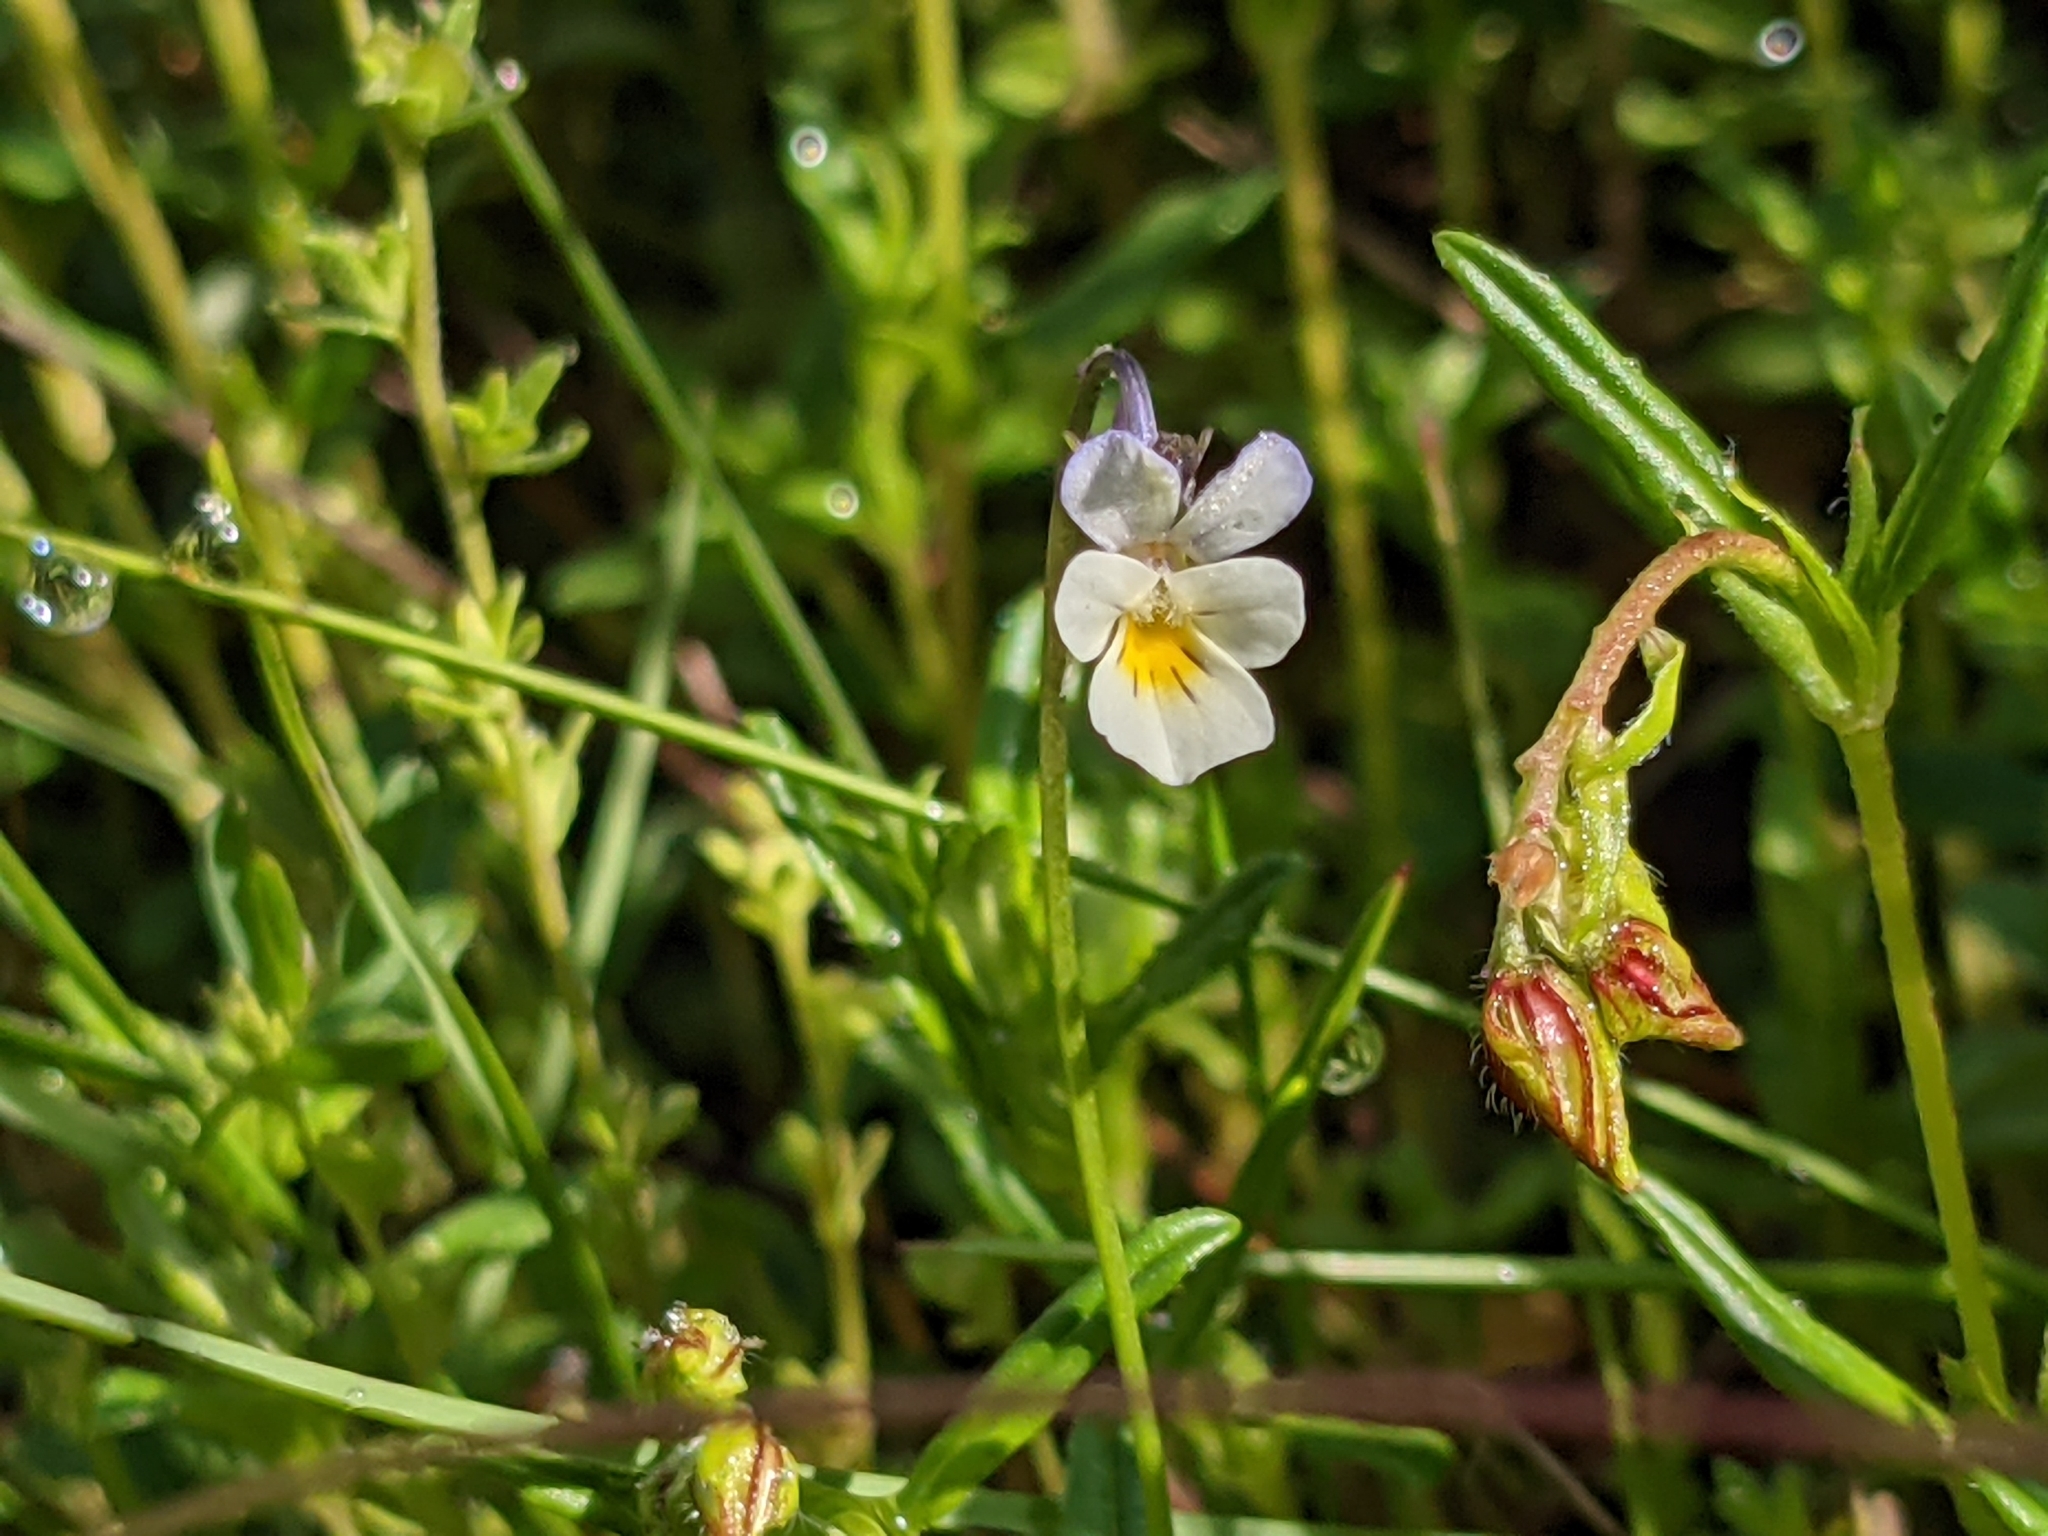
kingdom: Plantae
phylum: Tracheophyta
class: Magnoliopsida
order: Malpighiales
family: Violaceae
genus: Viola
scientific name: Viola arvensis
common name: Field pansy
